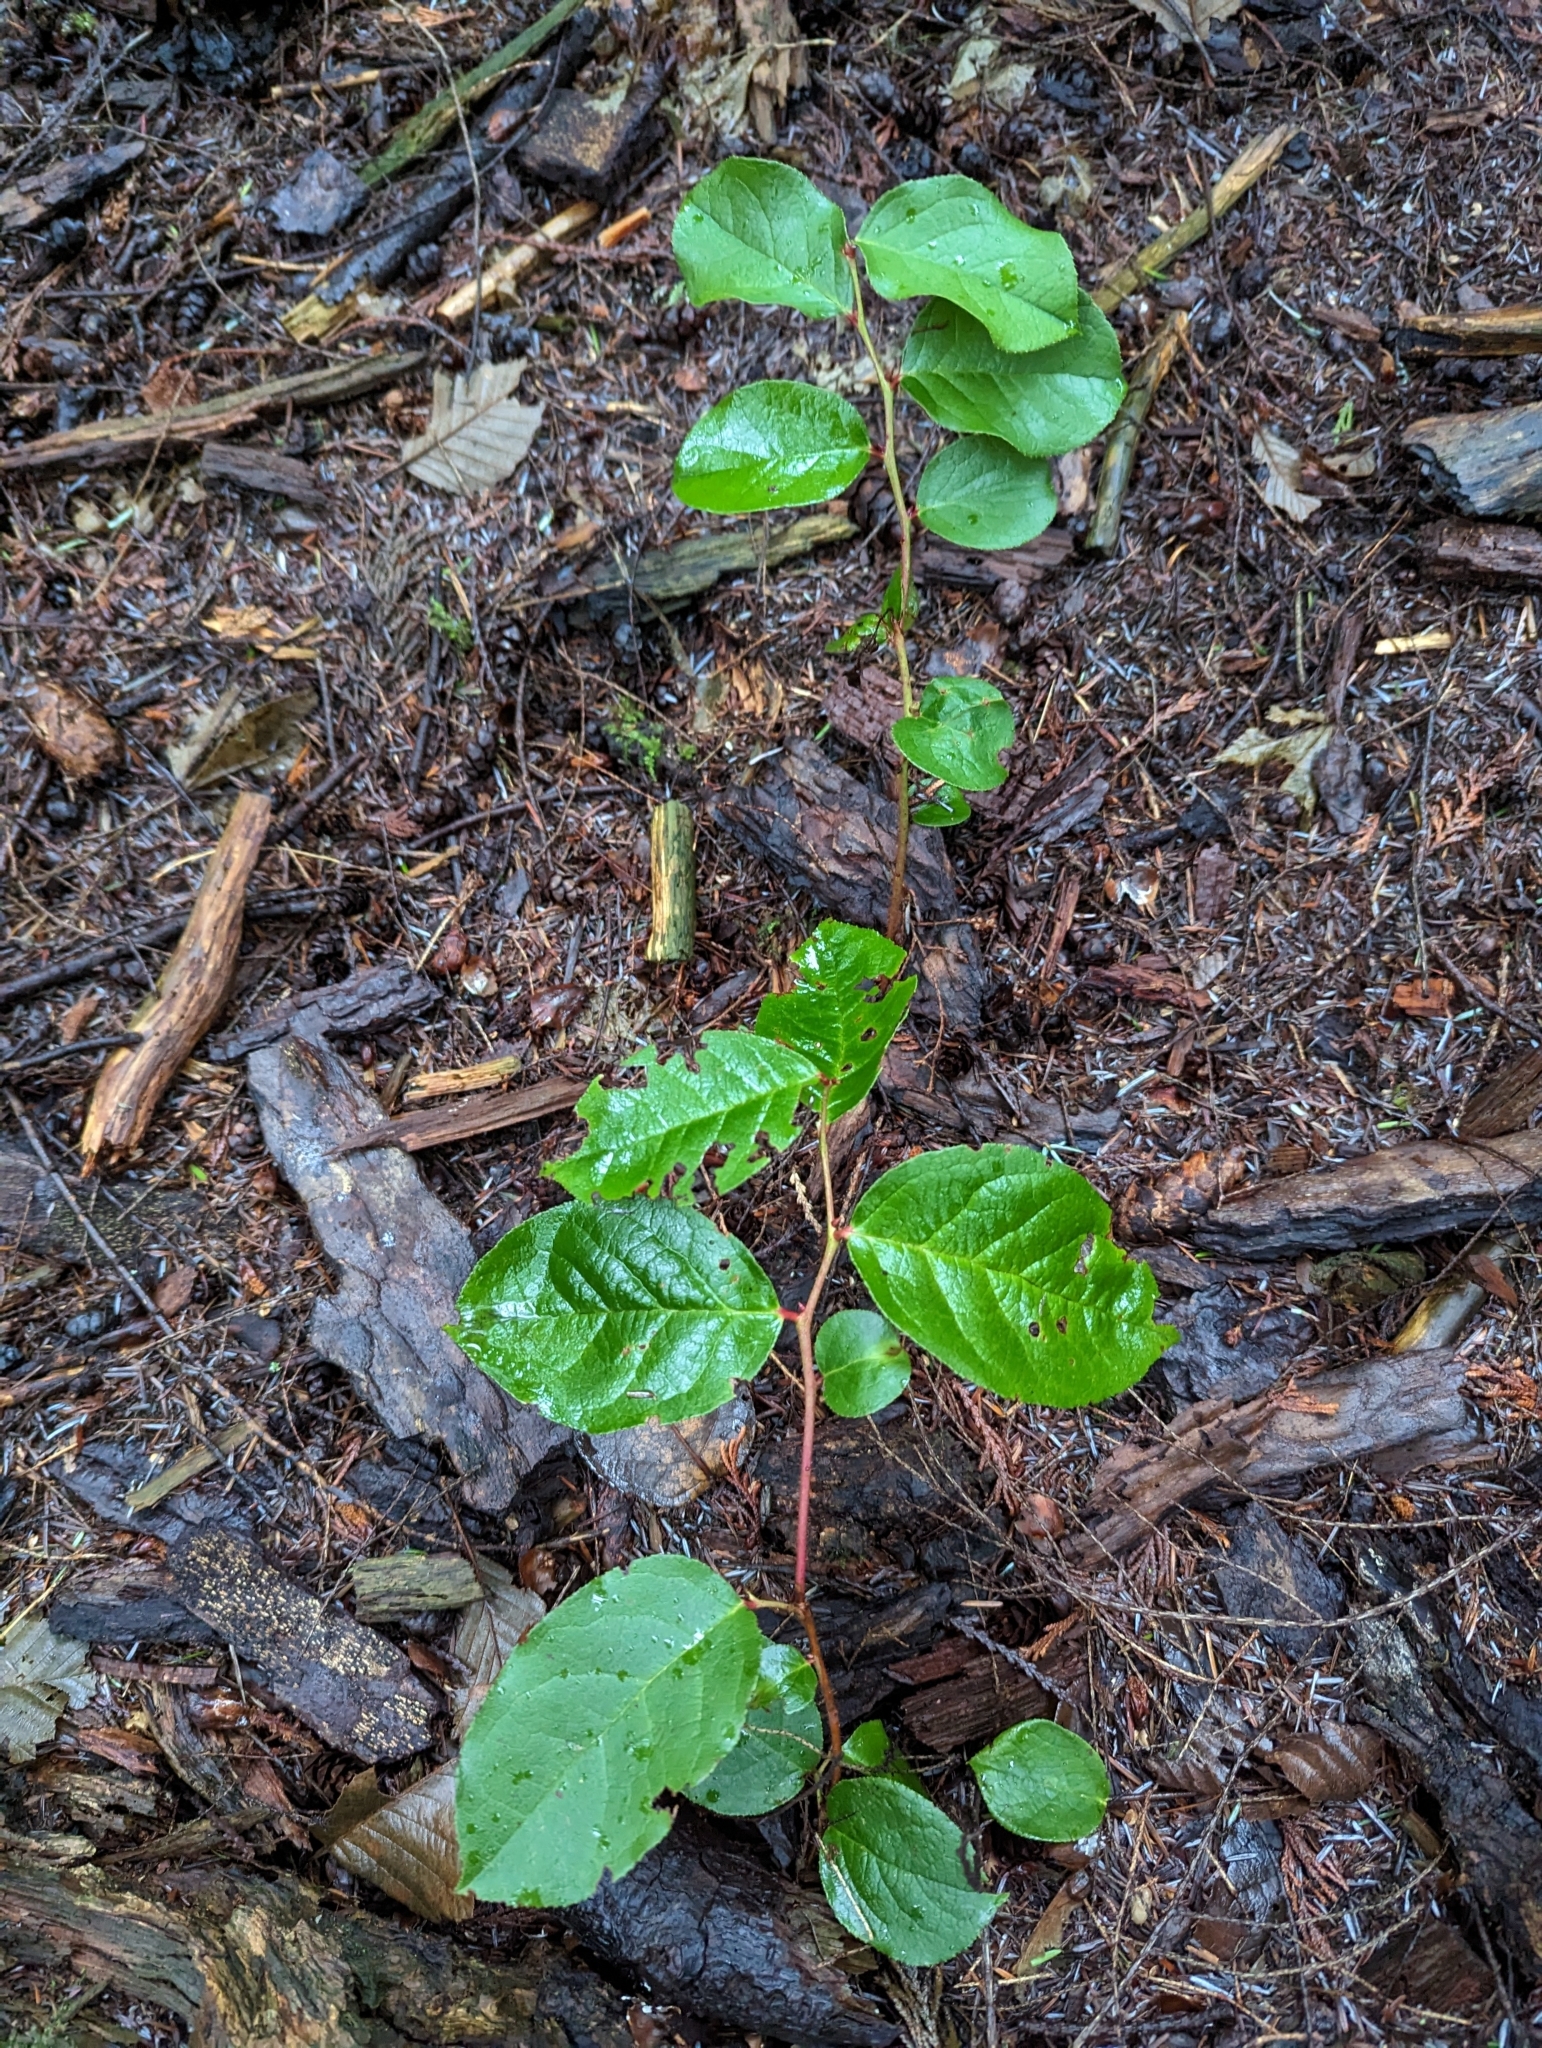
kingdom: Plantae
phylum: Tracheophyta
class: Magnoliopsida
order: Ericales
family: Ericaceae
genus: Gaultheria
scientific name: Gaultheria shallon
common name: Shallon
